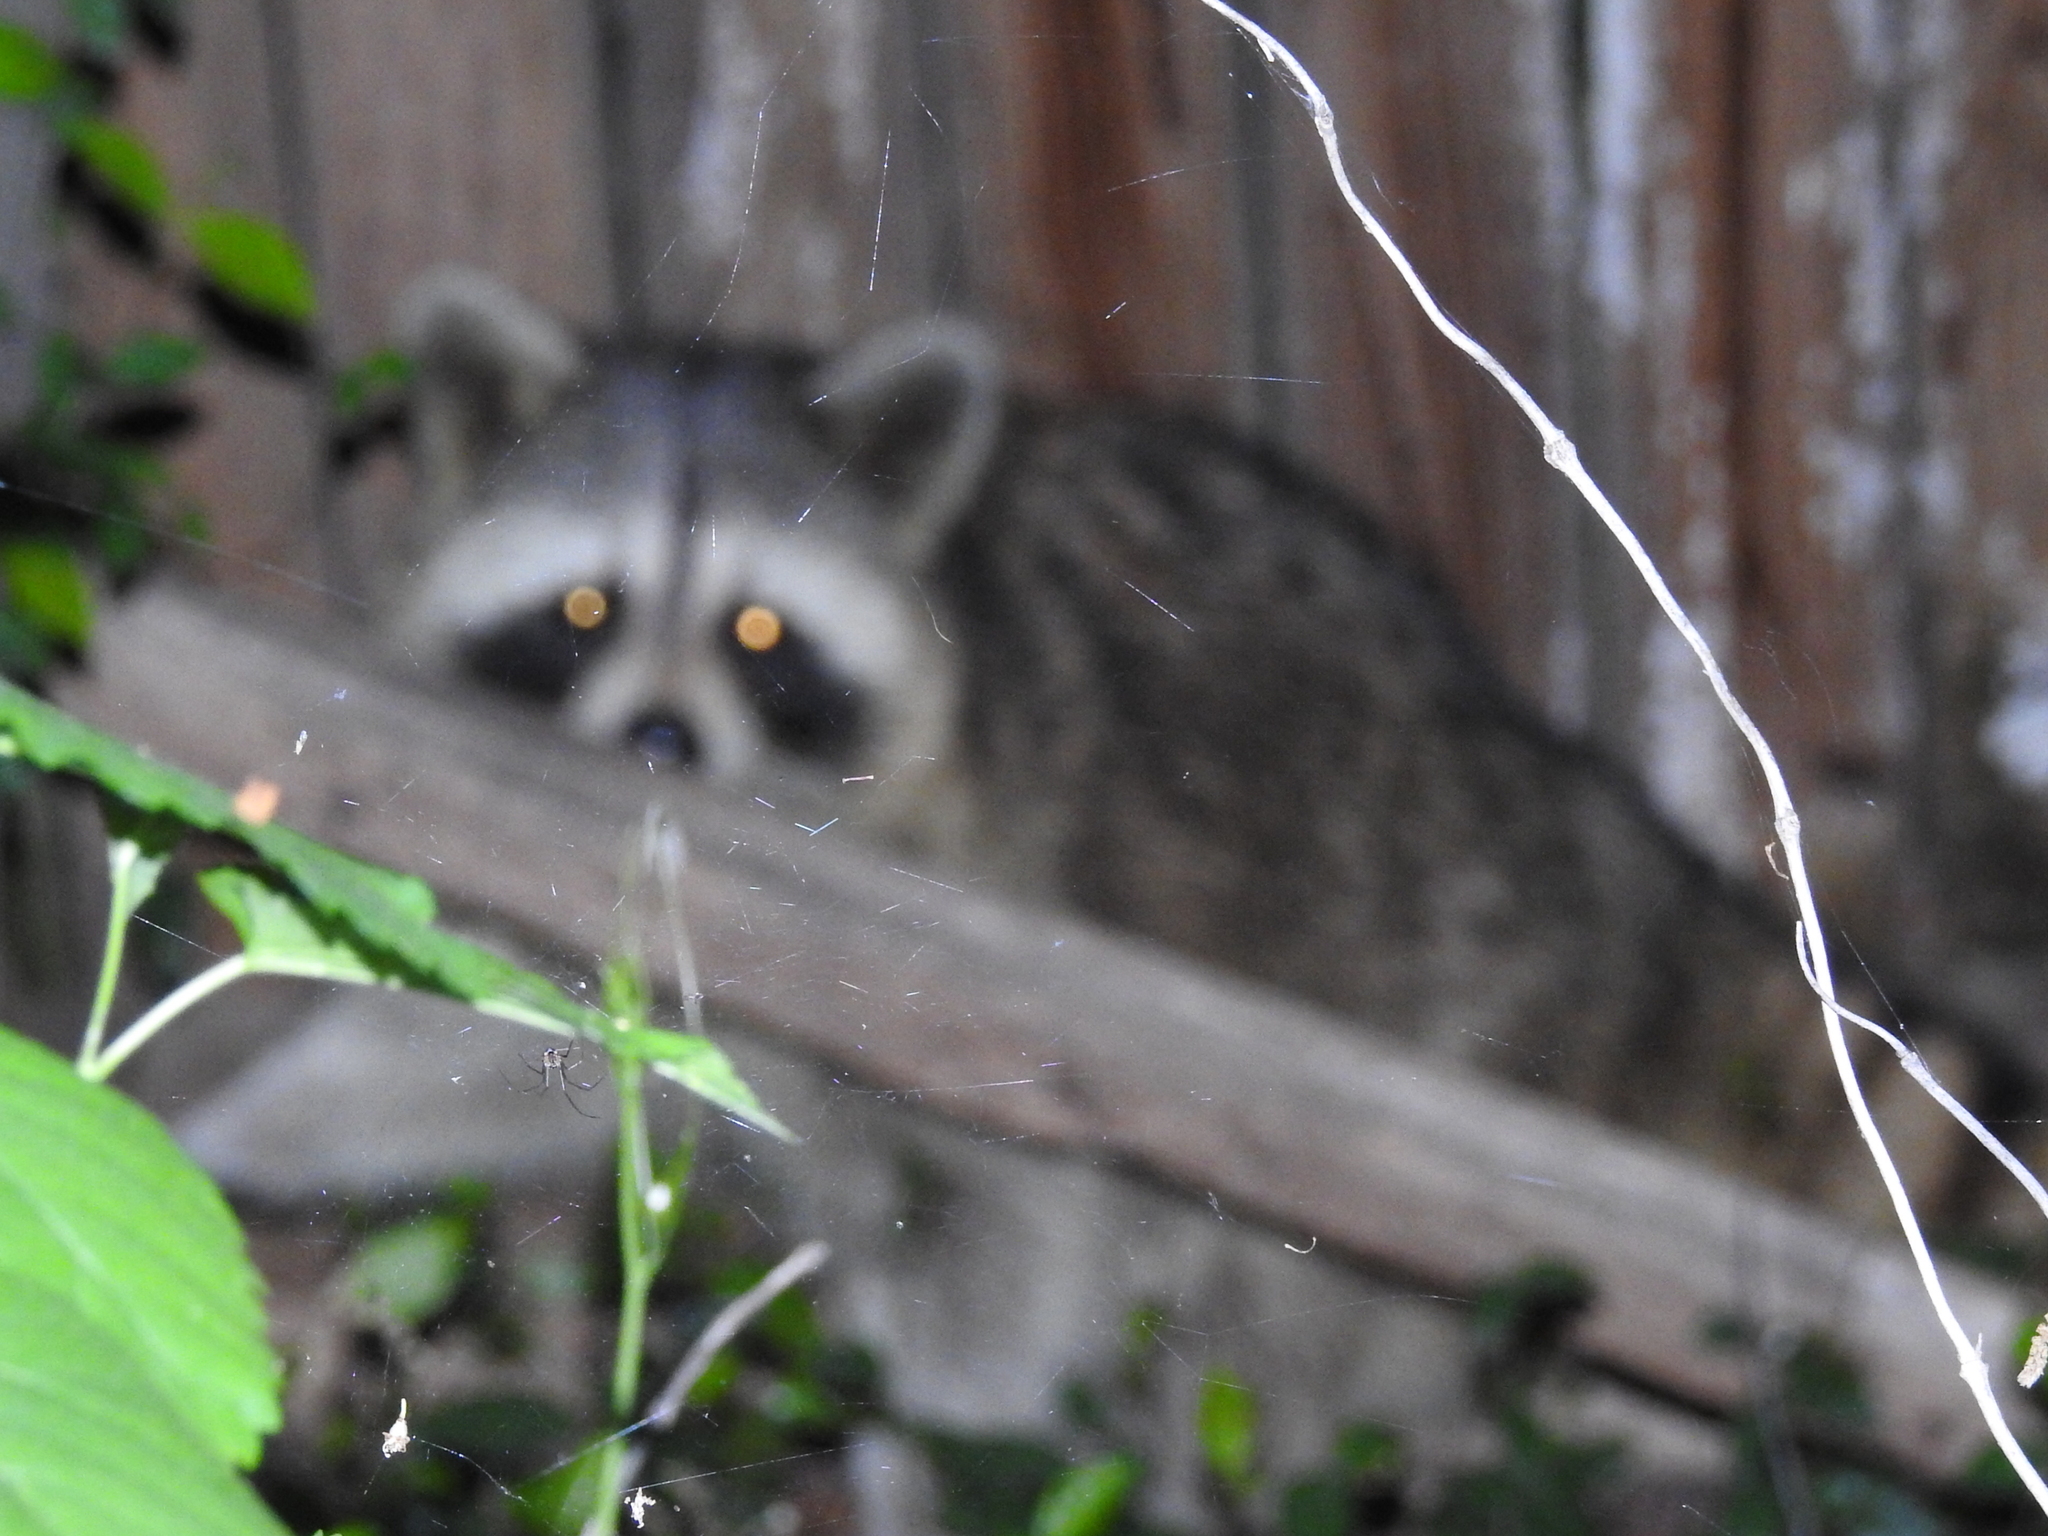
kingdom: Animalia
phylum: Chordata
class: Mammalia
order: Carnivora
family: Procyonidae
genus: Procyon
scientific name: Procyon lotor
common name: Raccoon
